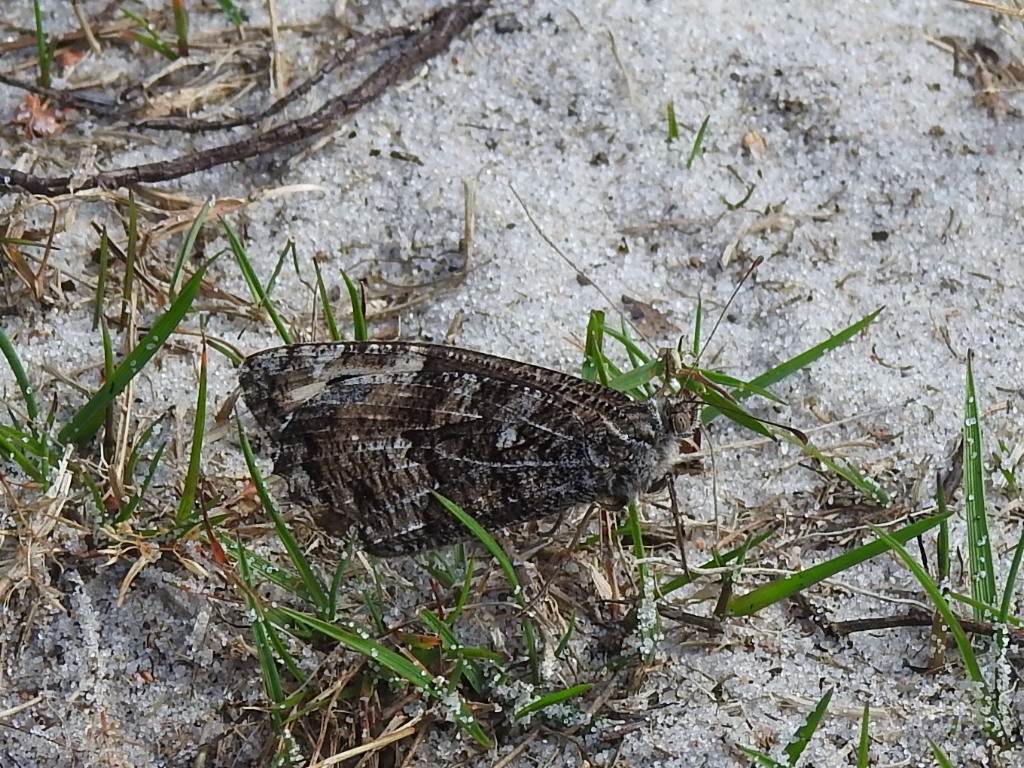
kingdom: Animalia
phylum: Arthropoda
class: Insecta
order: Lepidoptera
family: Nymphalidae
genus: Hipparchia
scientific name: Hipparchia semele
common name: Grayling
